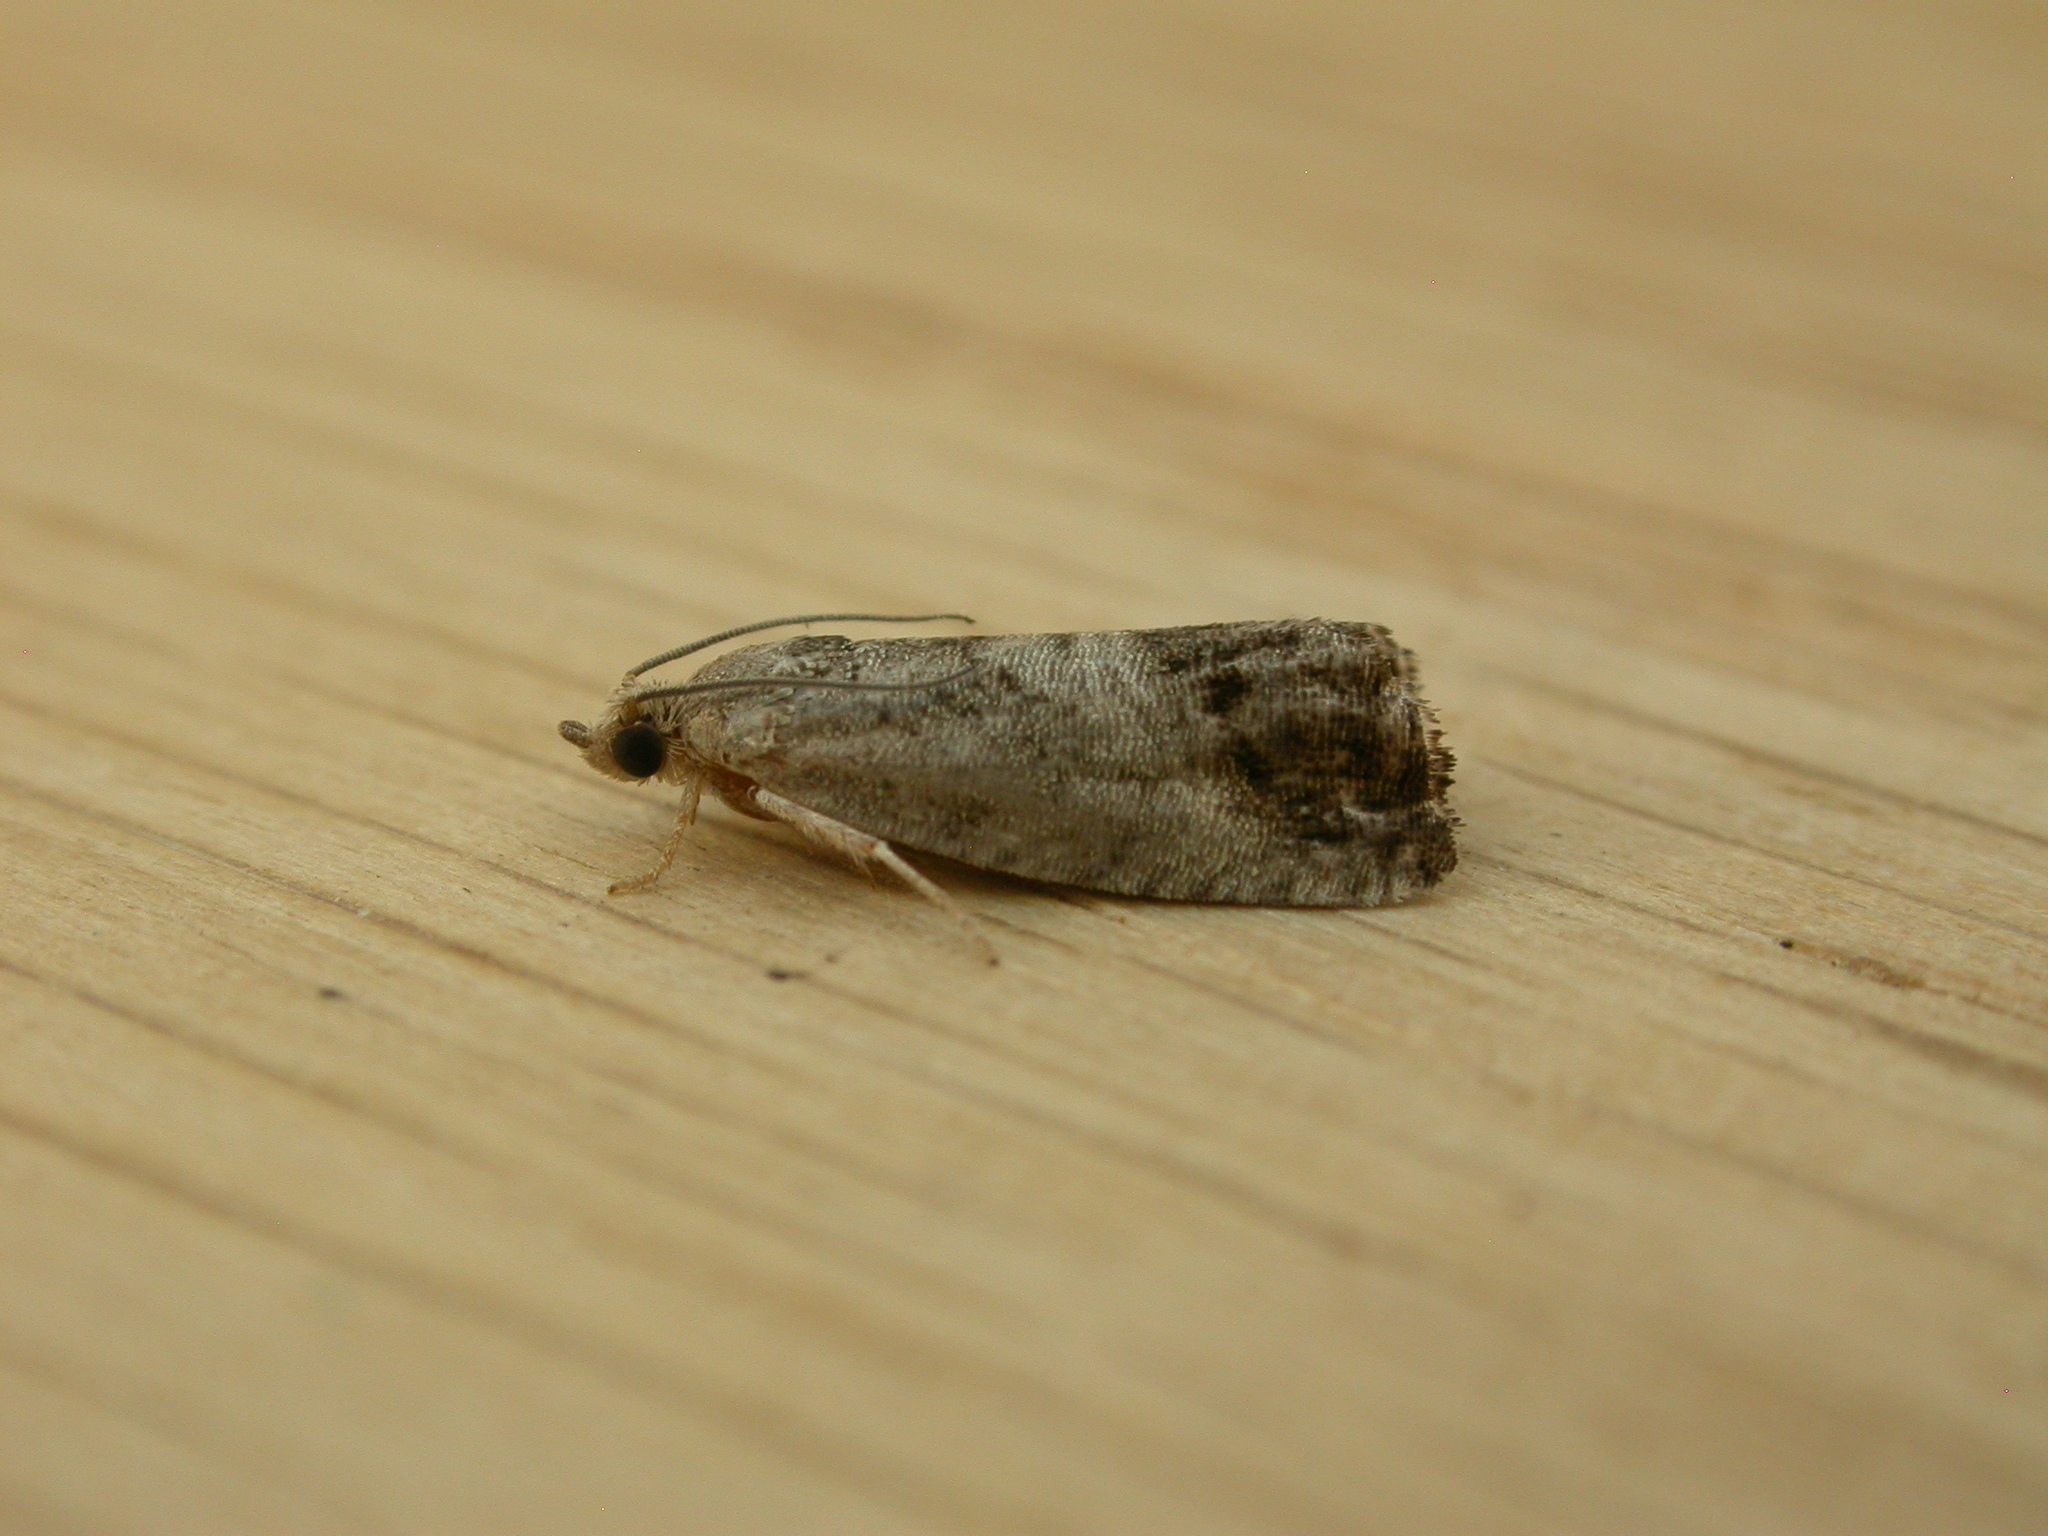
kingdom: Animalia
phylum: Arthropoda
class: Insecta
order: Lepidoptera
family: Tortricidae
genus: Cydia
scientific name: Cydia splendana
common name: De: kastanienwickler, eichenwickler es: oruga de la castaña fr: carpocapse des châtaignes it: cidia o tortrice tardiva delle castagne pt: bichado das castanhas gb: acorn moth, chestnut fruit tortrix
